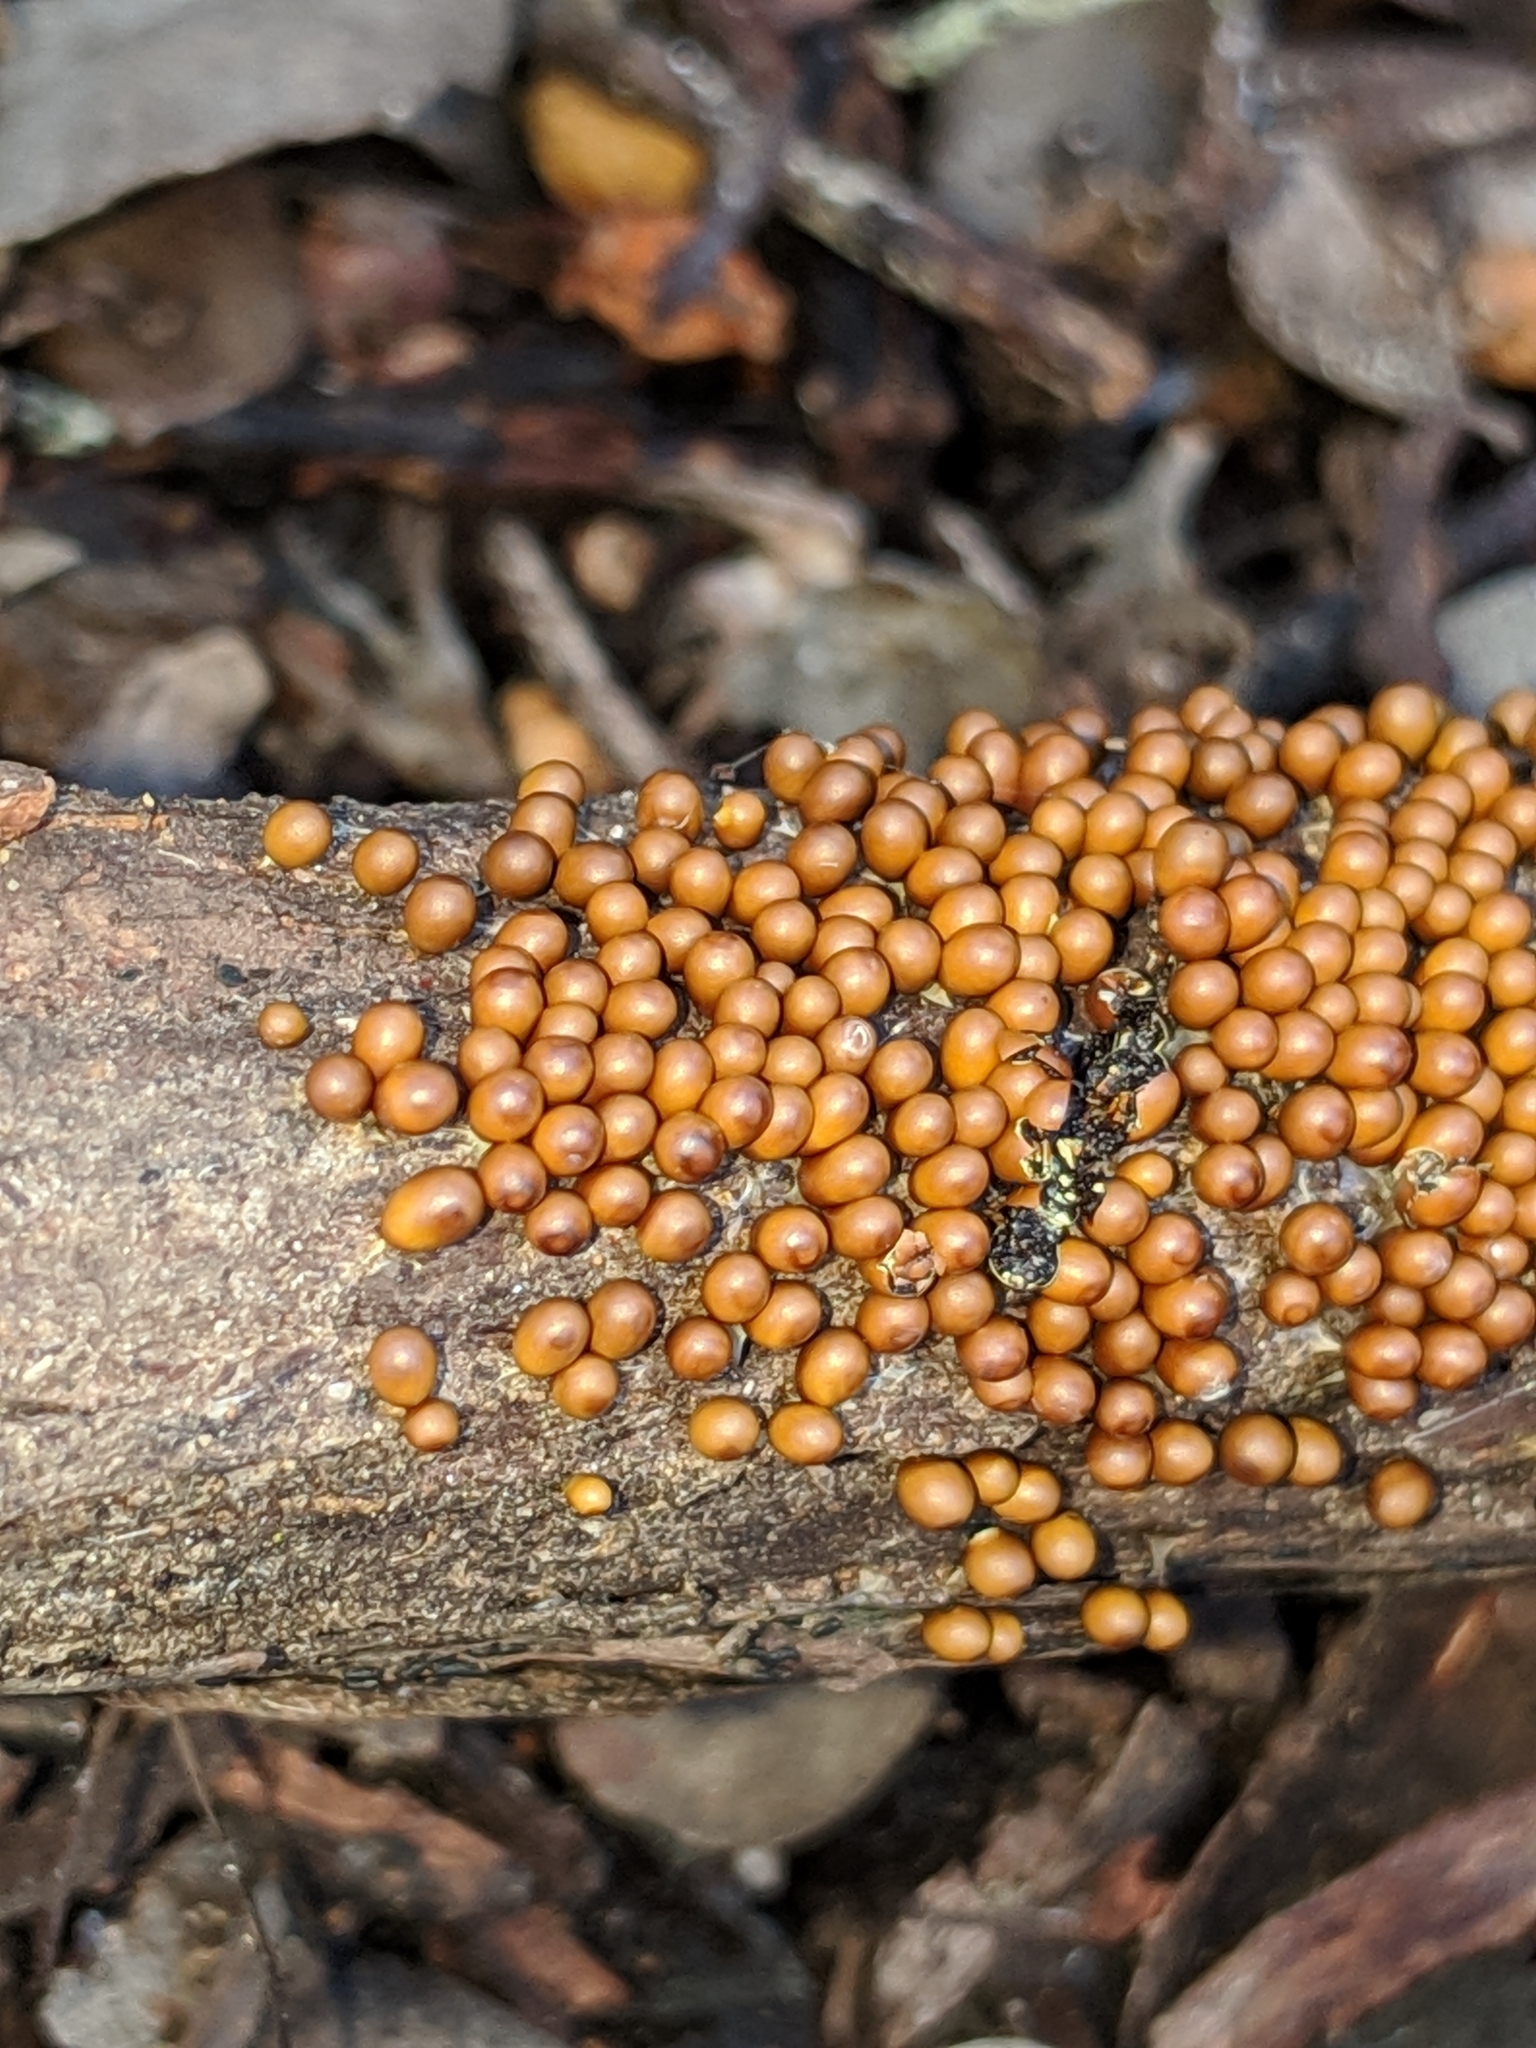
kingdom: Protozoa
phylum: Mycetozoa
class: Myxomycetes
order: Physarales
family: Physaraceae
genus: Leocarpus
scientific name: Leocarpus fragilis
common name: Insect-egg slime
